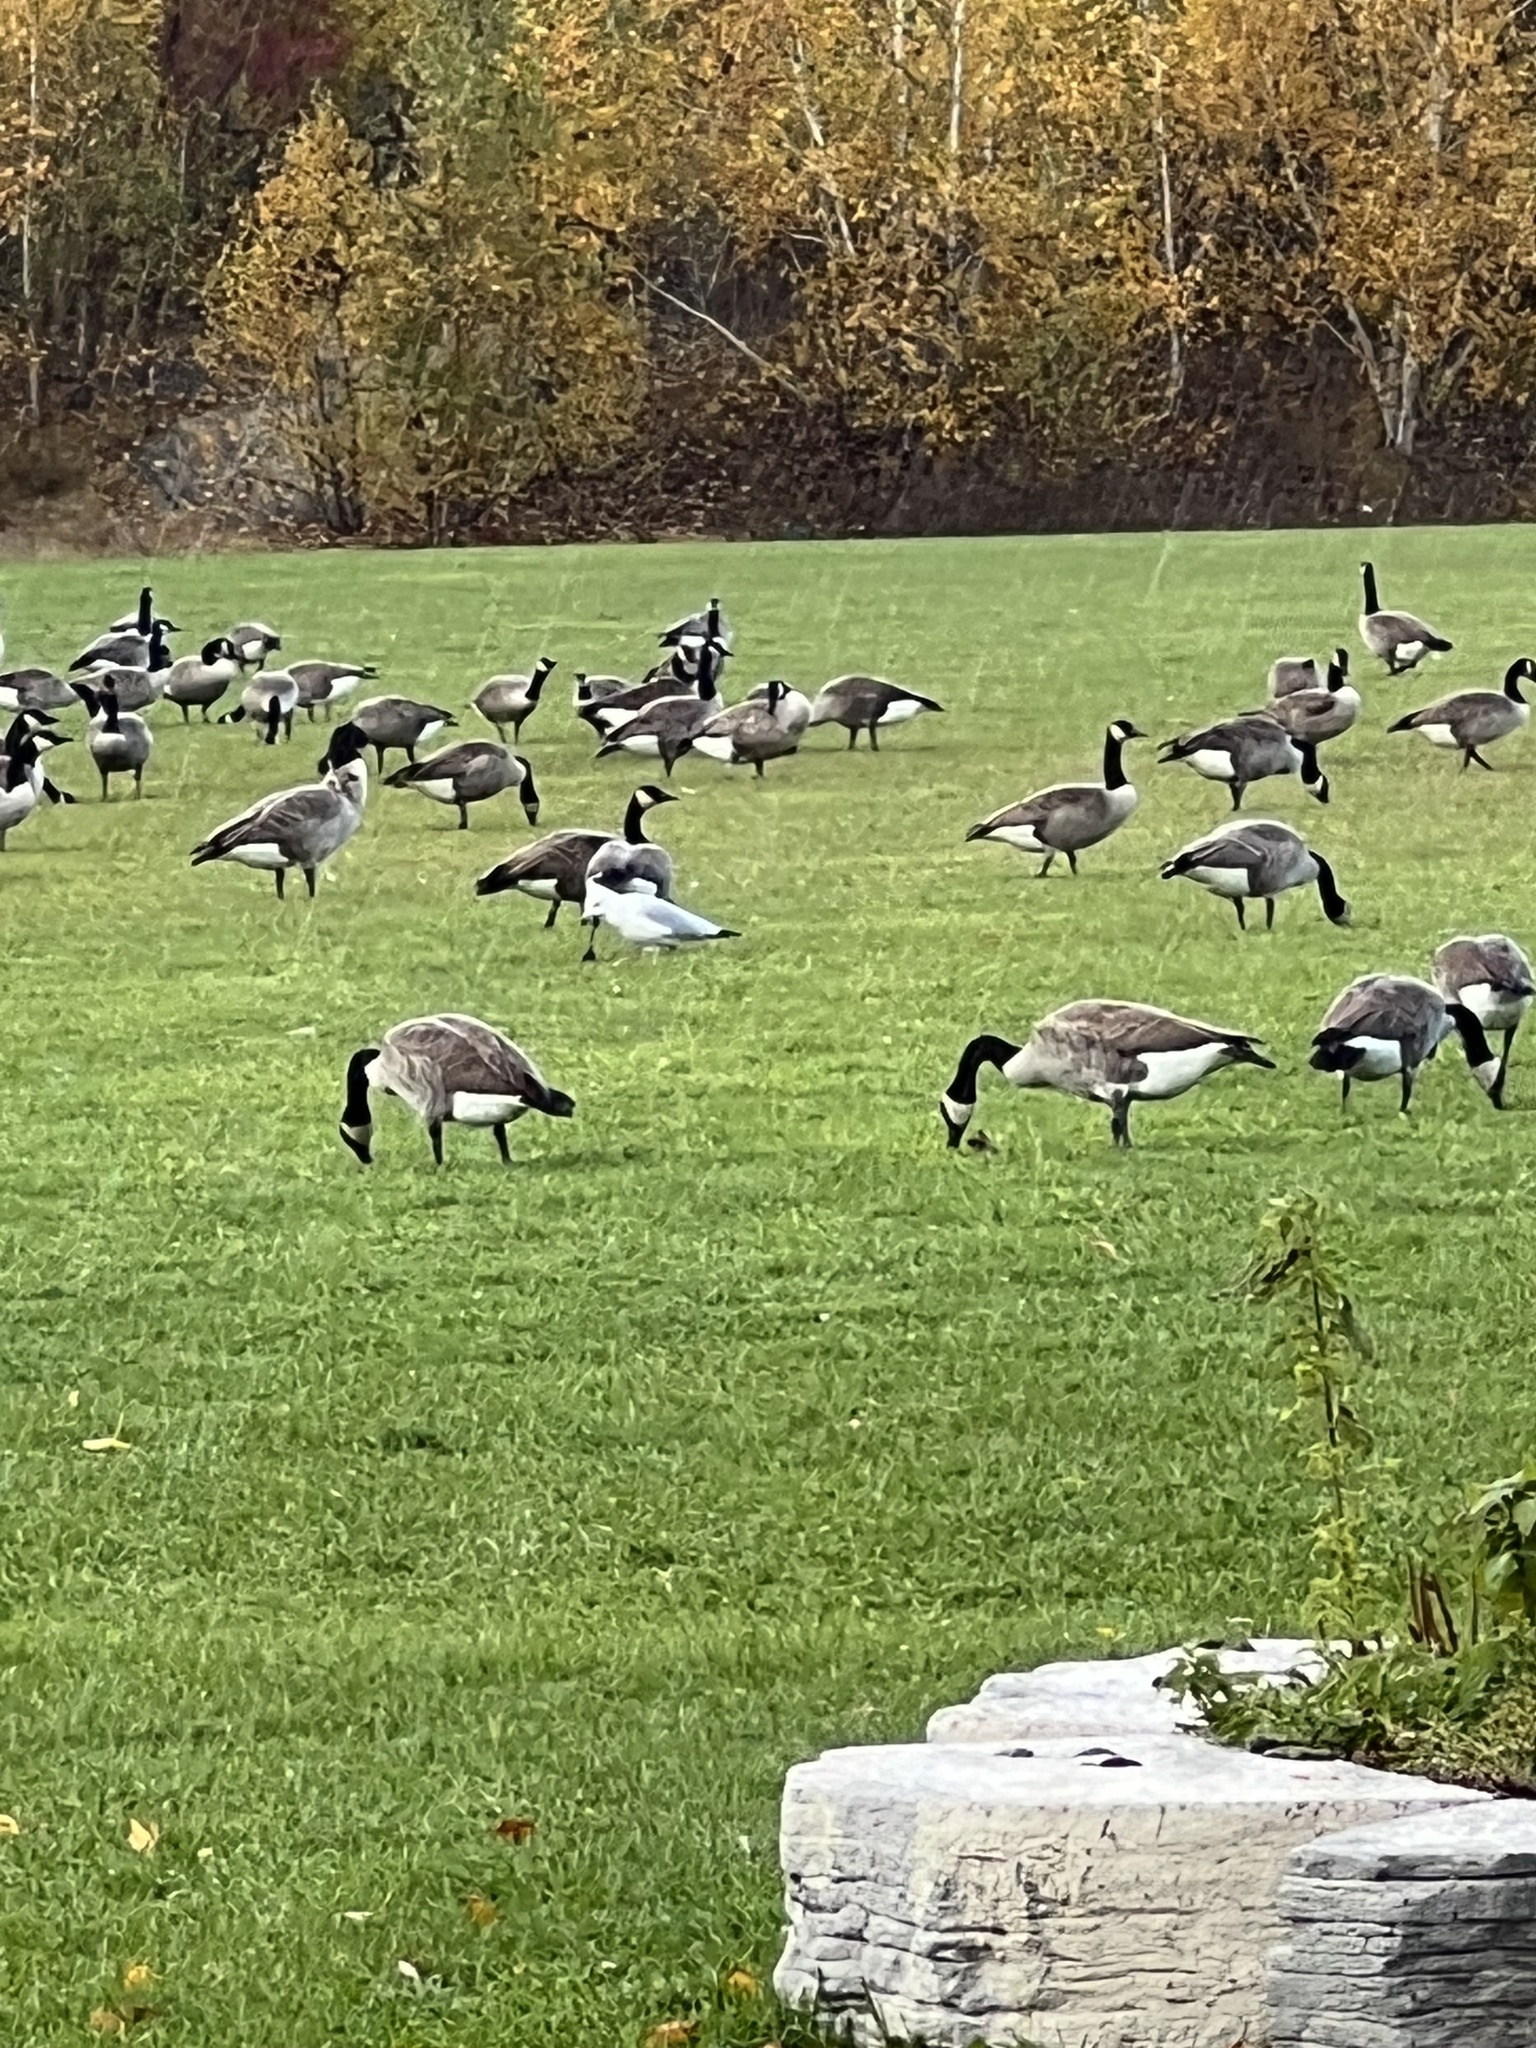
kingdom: Animalia
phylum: Chordata
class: Aves
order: Anseriformes
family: Anatidae
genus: Branta
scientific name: Branta canadensis
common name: Canada goose
